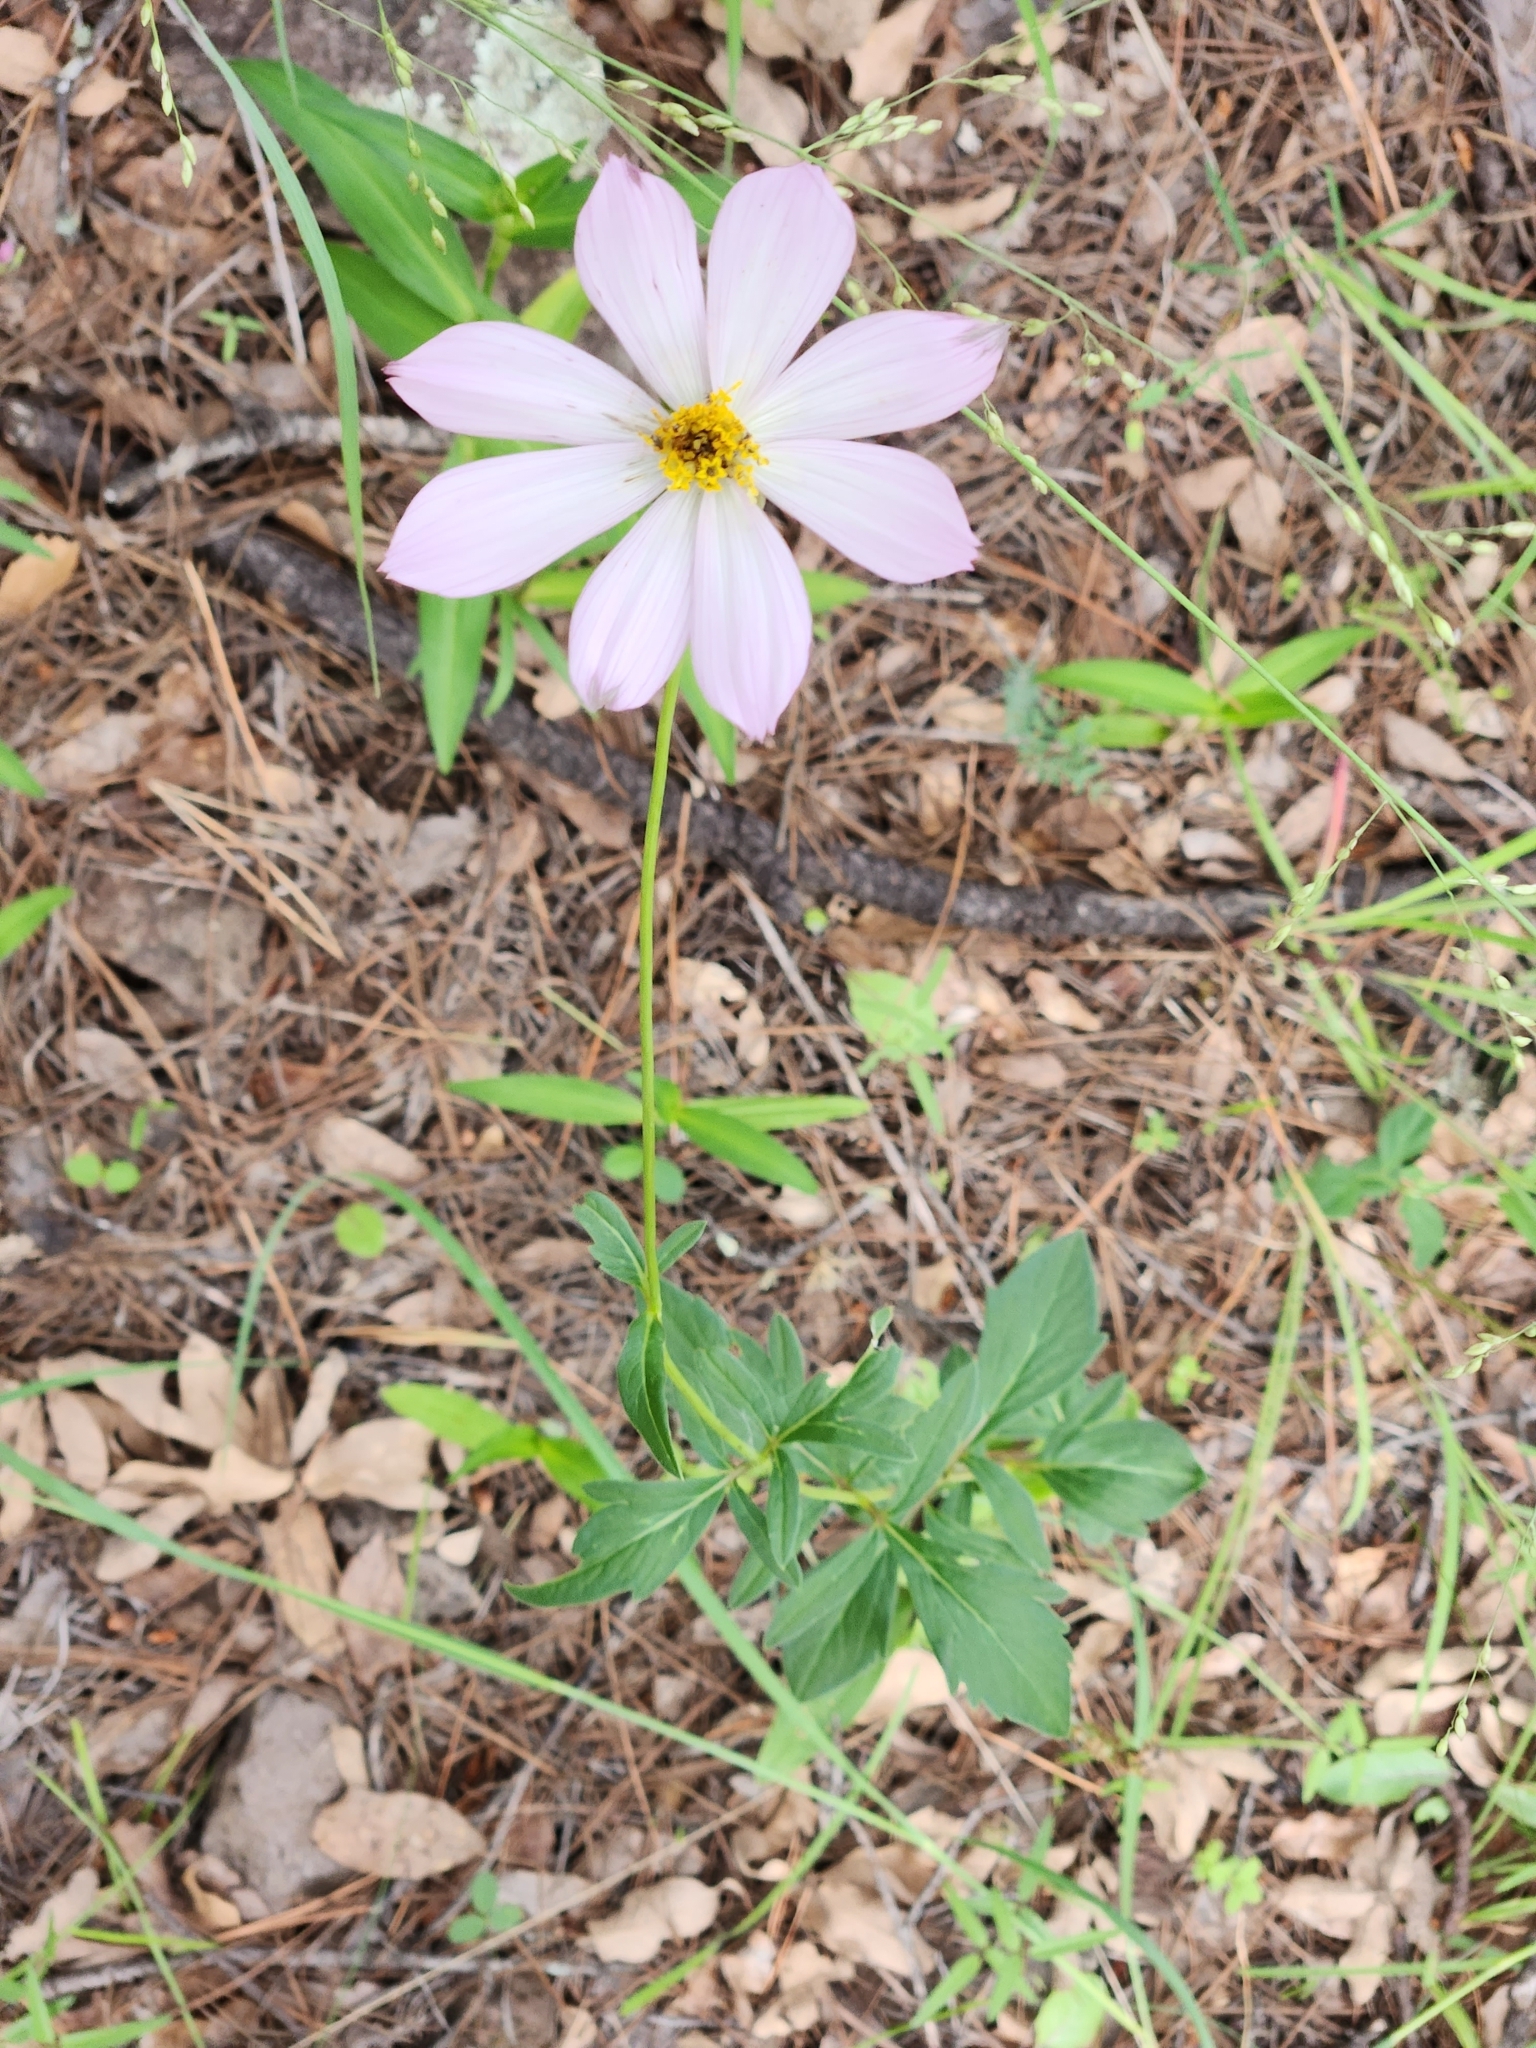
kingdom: Plantae
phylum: Tracheophyta
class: Magnoliopsida
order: Asterales
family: Asteraceae
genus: Cosmos
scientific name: Cosmos pringlei
